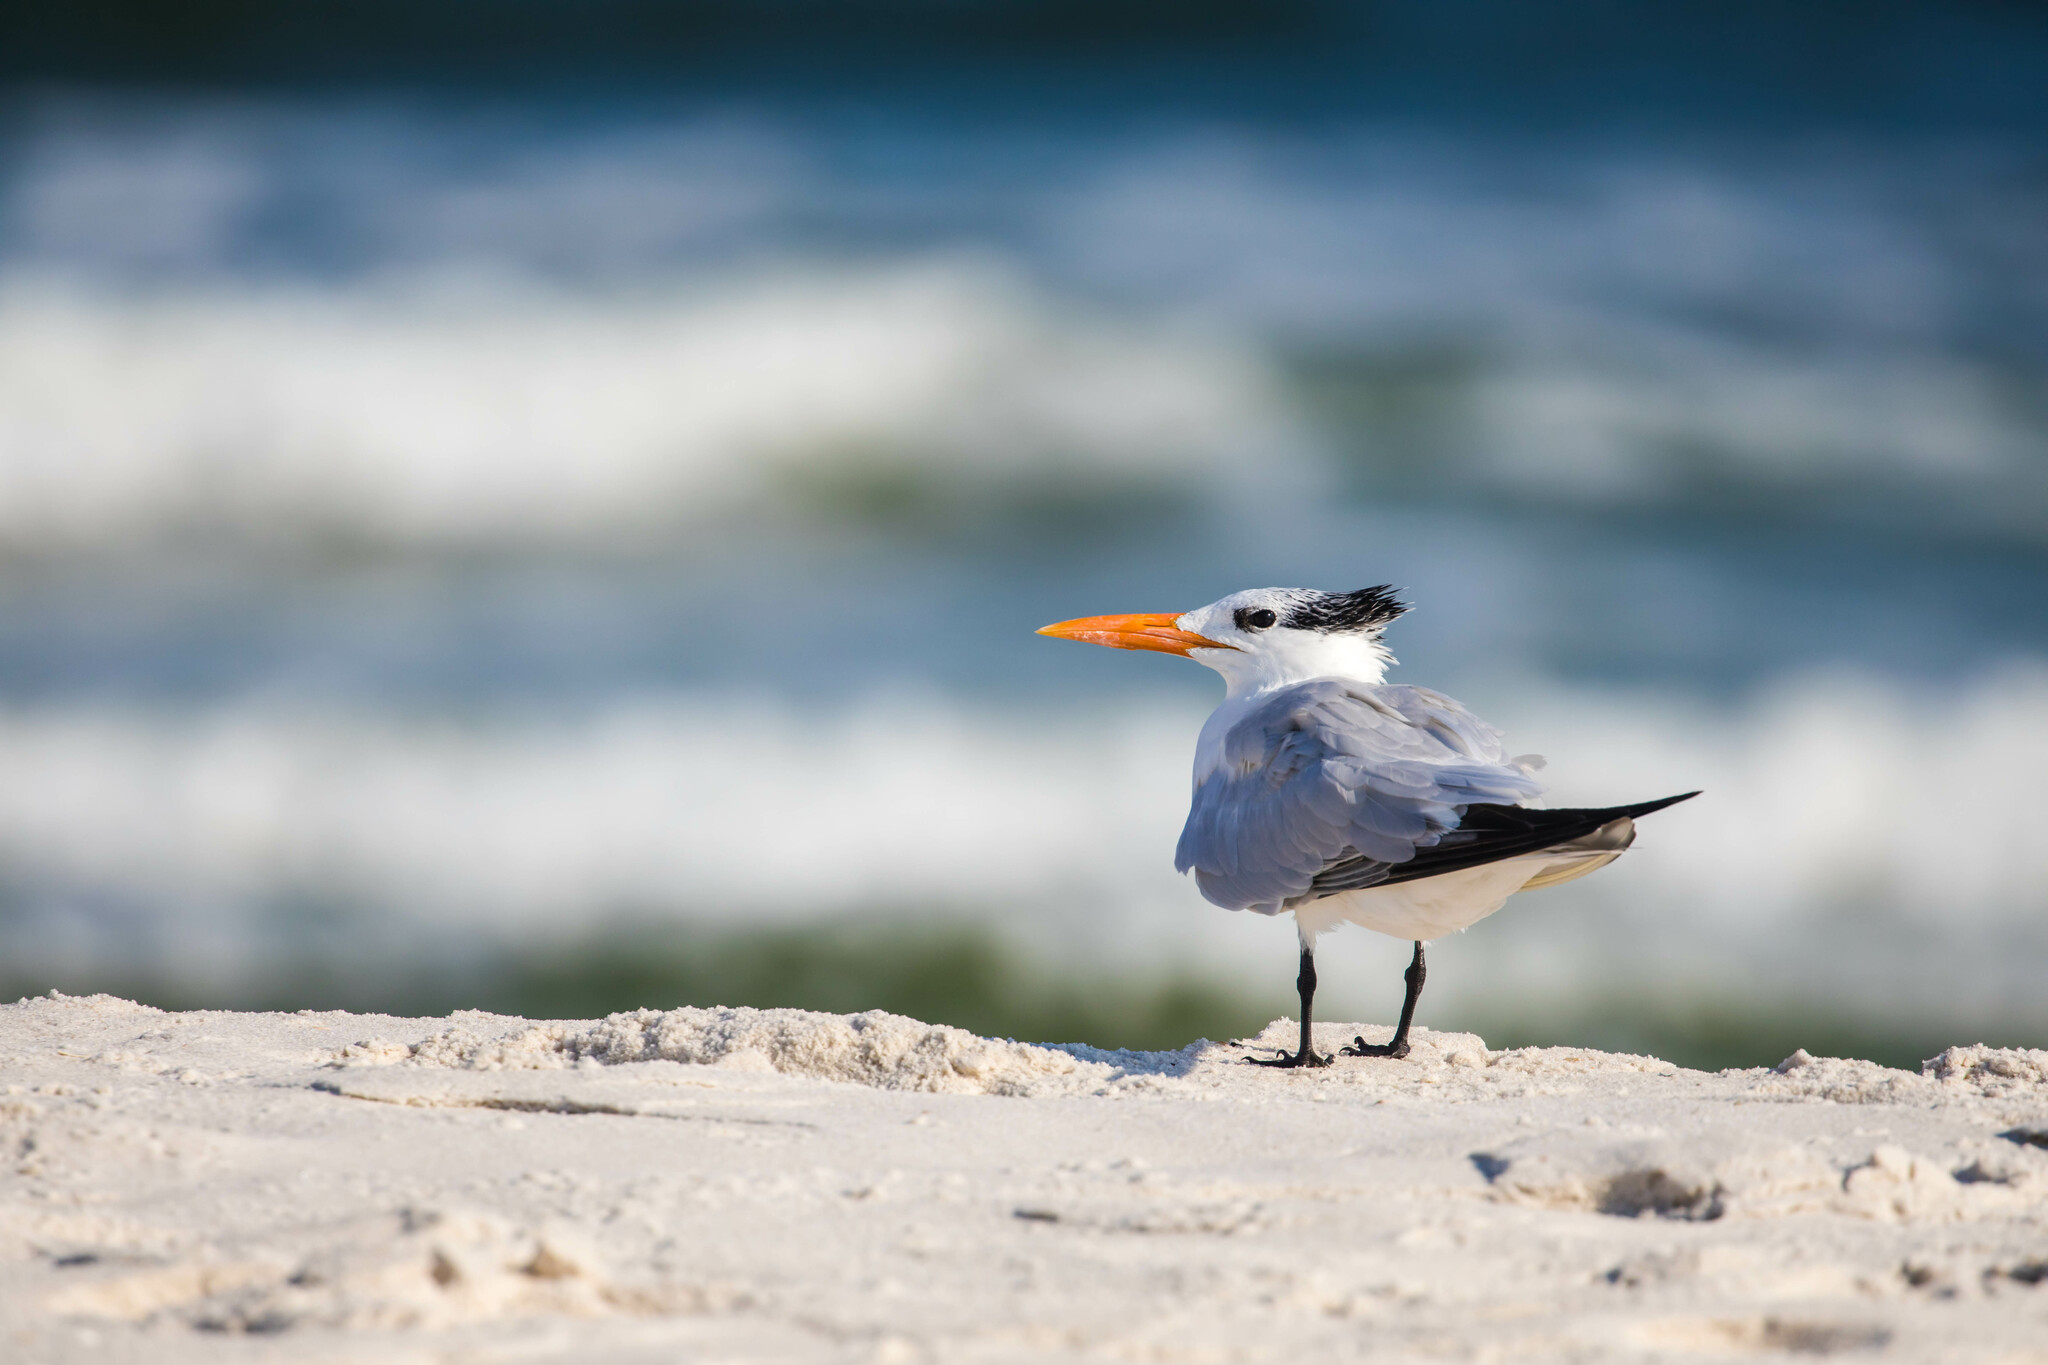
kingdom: Animalia
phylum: Chordata
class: Aves
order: Charadriiformes
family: Laridae
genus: Thalasseus
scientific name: Thalasseus maximus
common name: Royal tern
